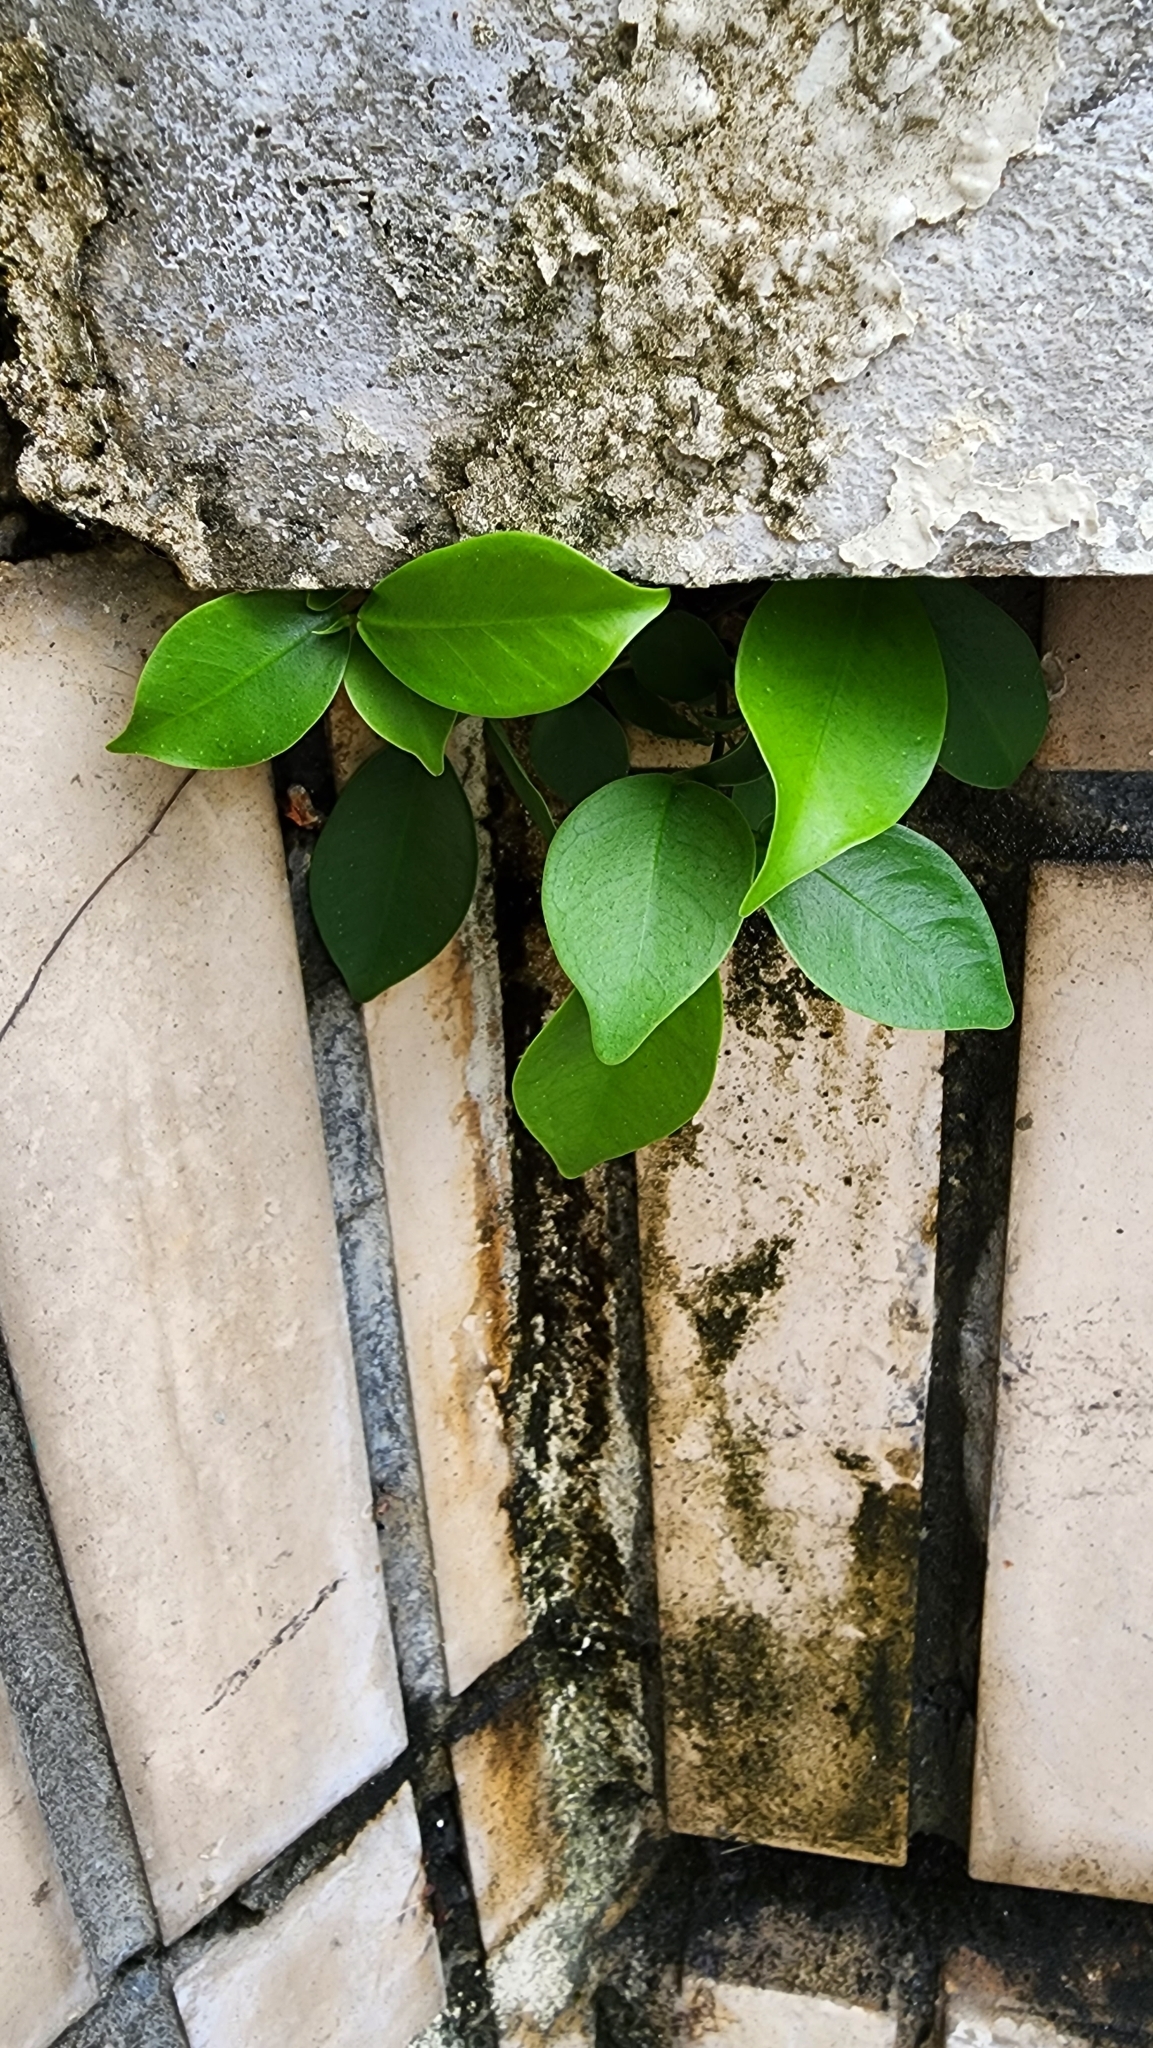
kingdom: Plantae
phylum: Tracheophyta
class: Magnoliopsida
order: Rosales
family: Moraceae
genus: Ficus
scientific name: Ficus microcarpa
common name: Chinese banyan
